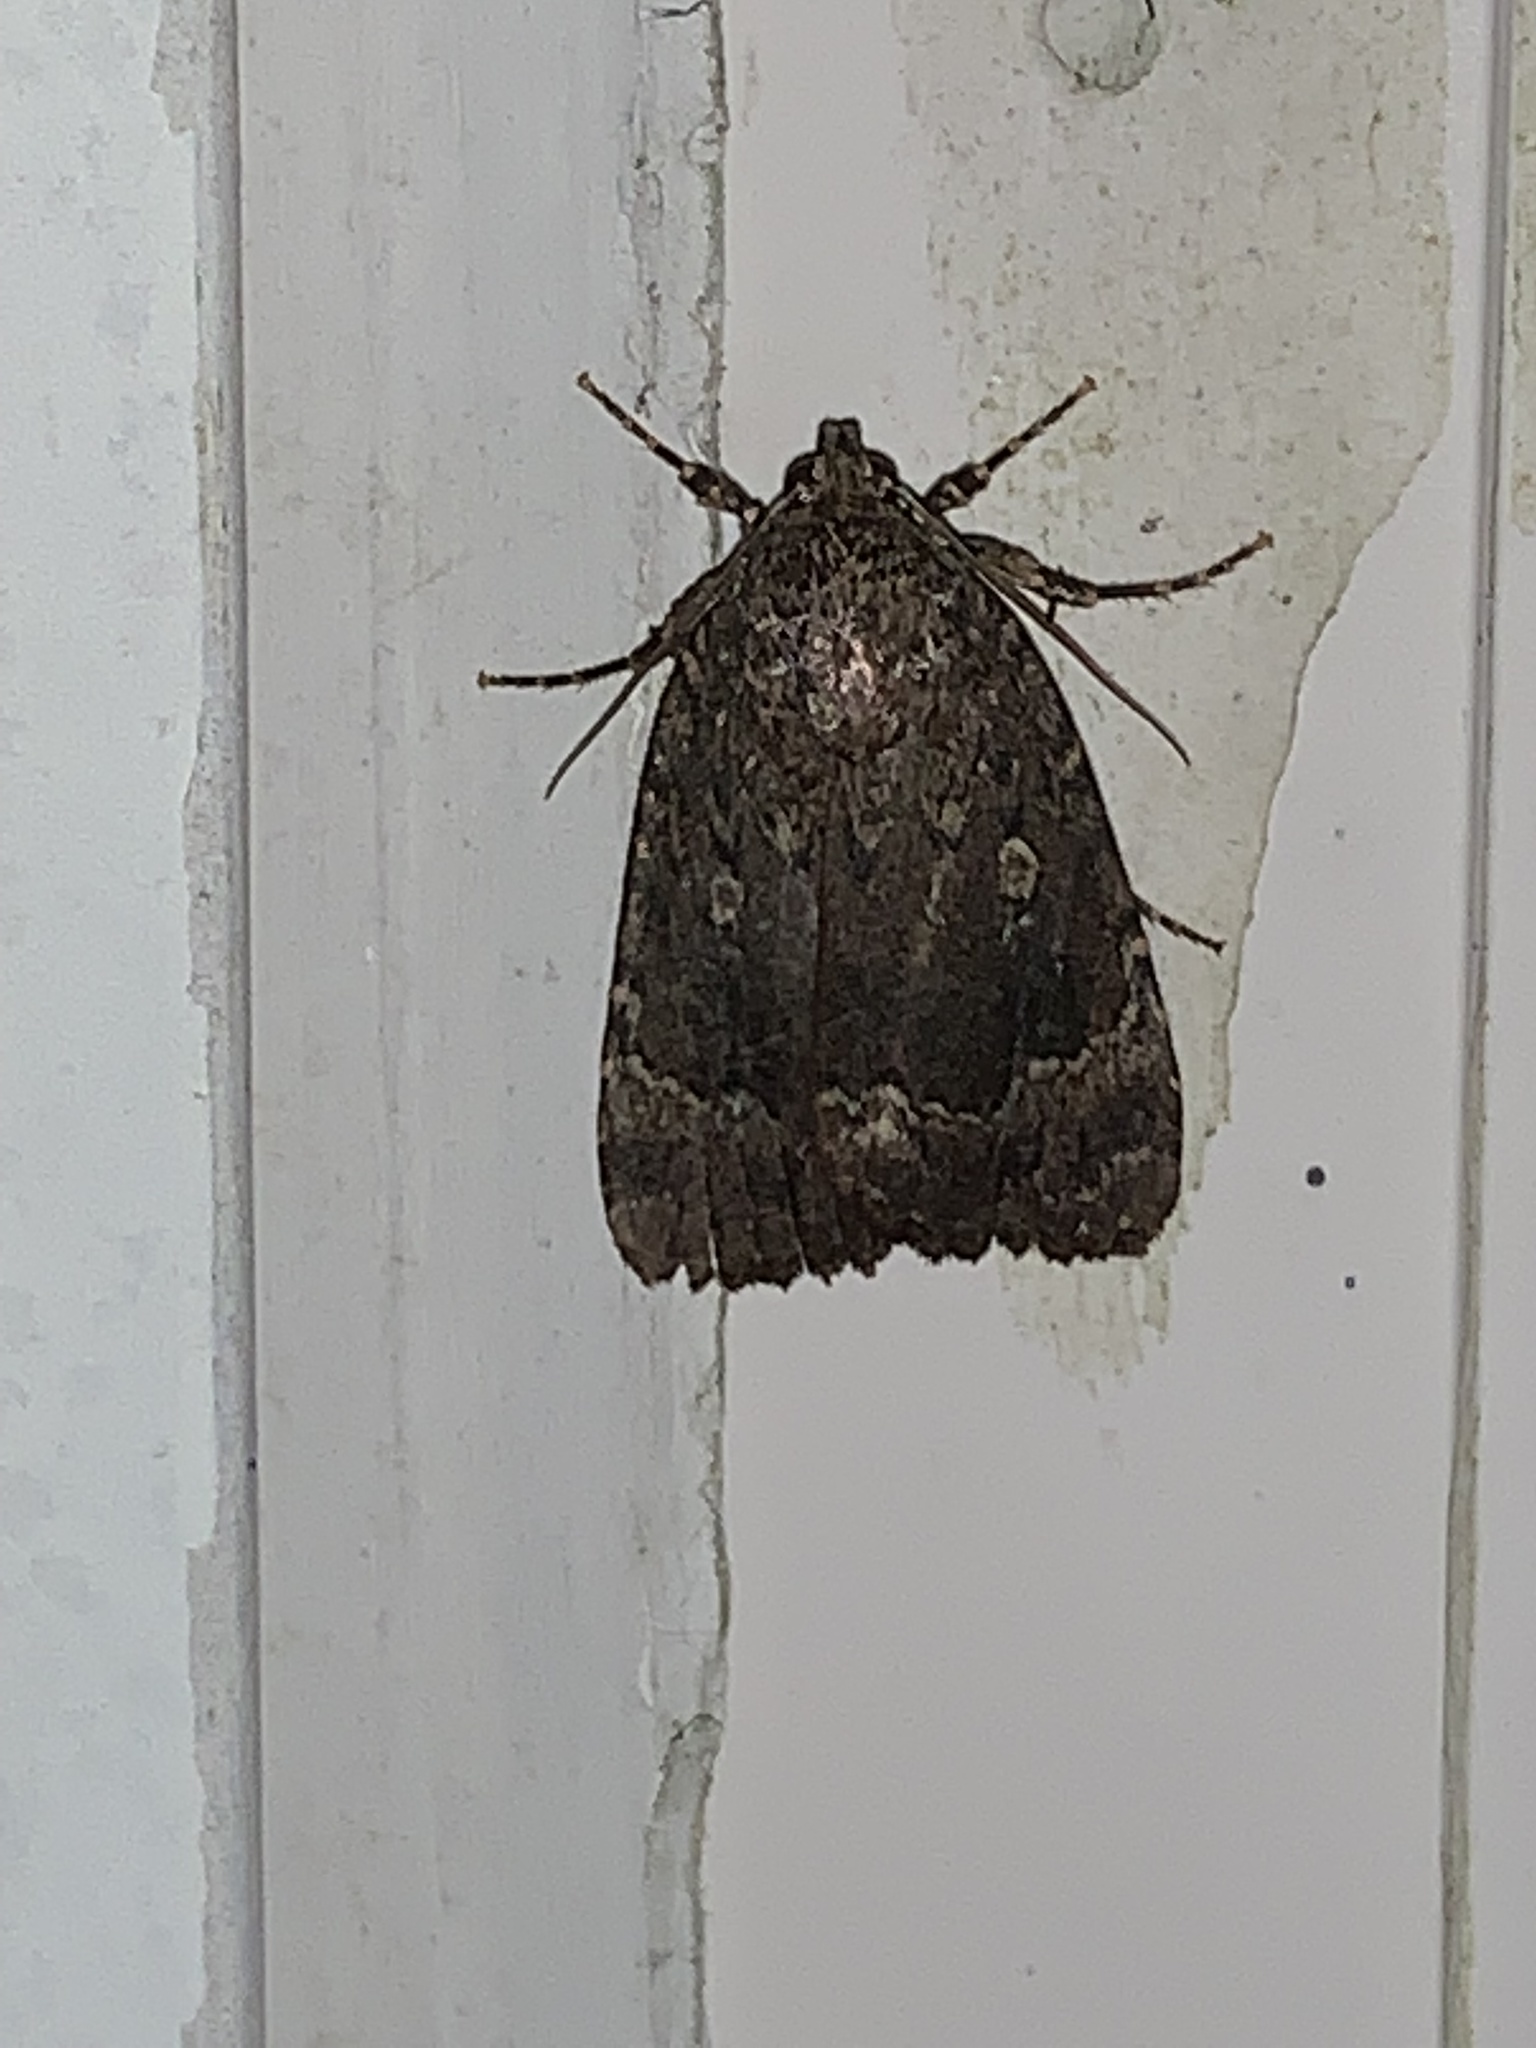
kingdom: Animalia
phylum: Arthropoda
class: Insecta
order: Lepidoptera
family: Noctuidae
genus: Amphipyra
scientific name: Amphipyra pyramidoides
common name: American copper underwing
